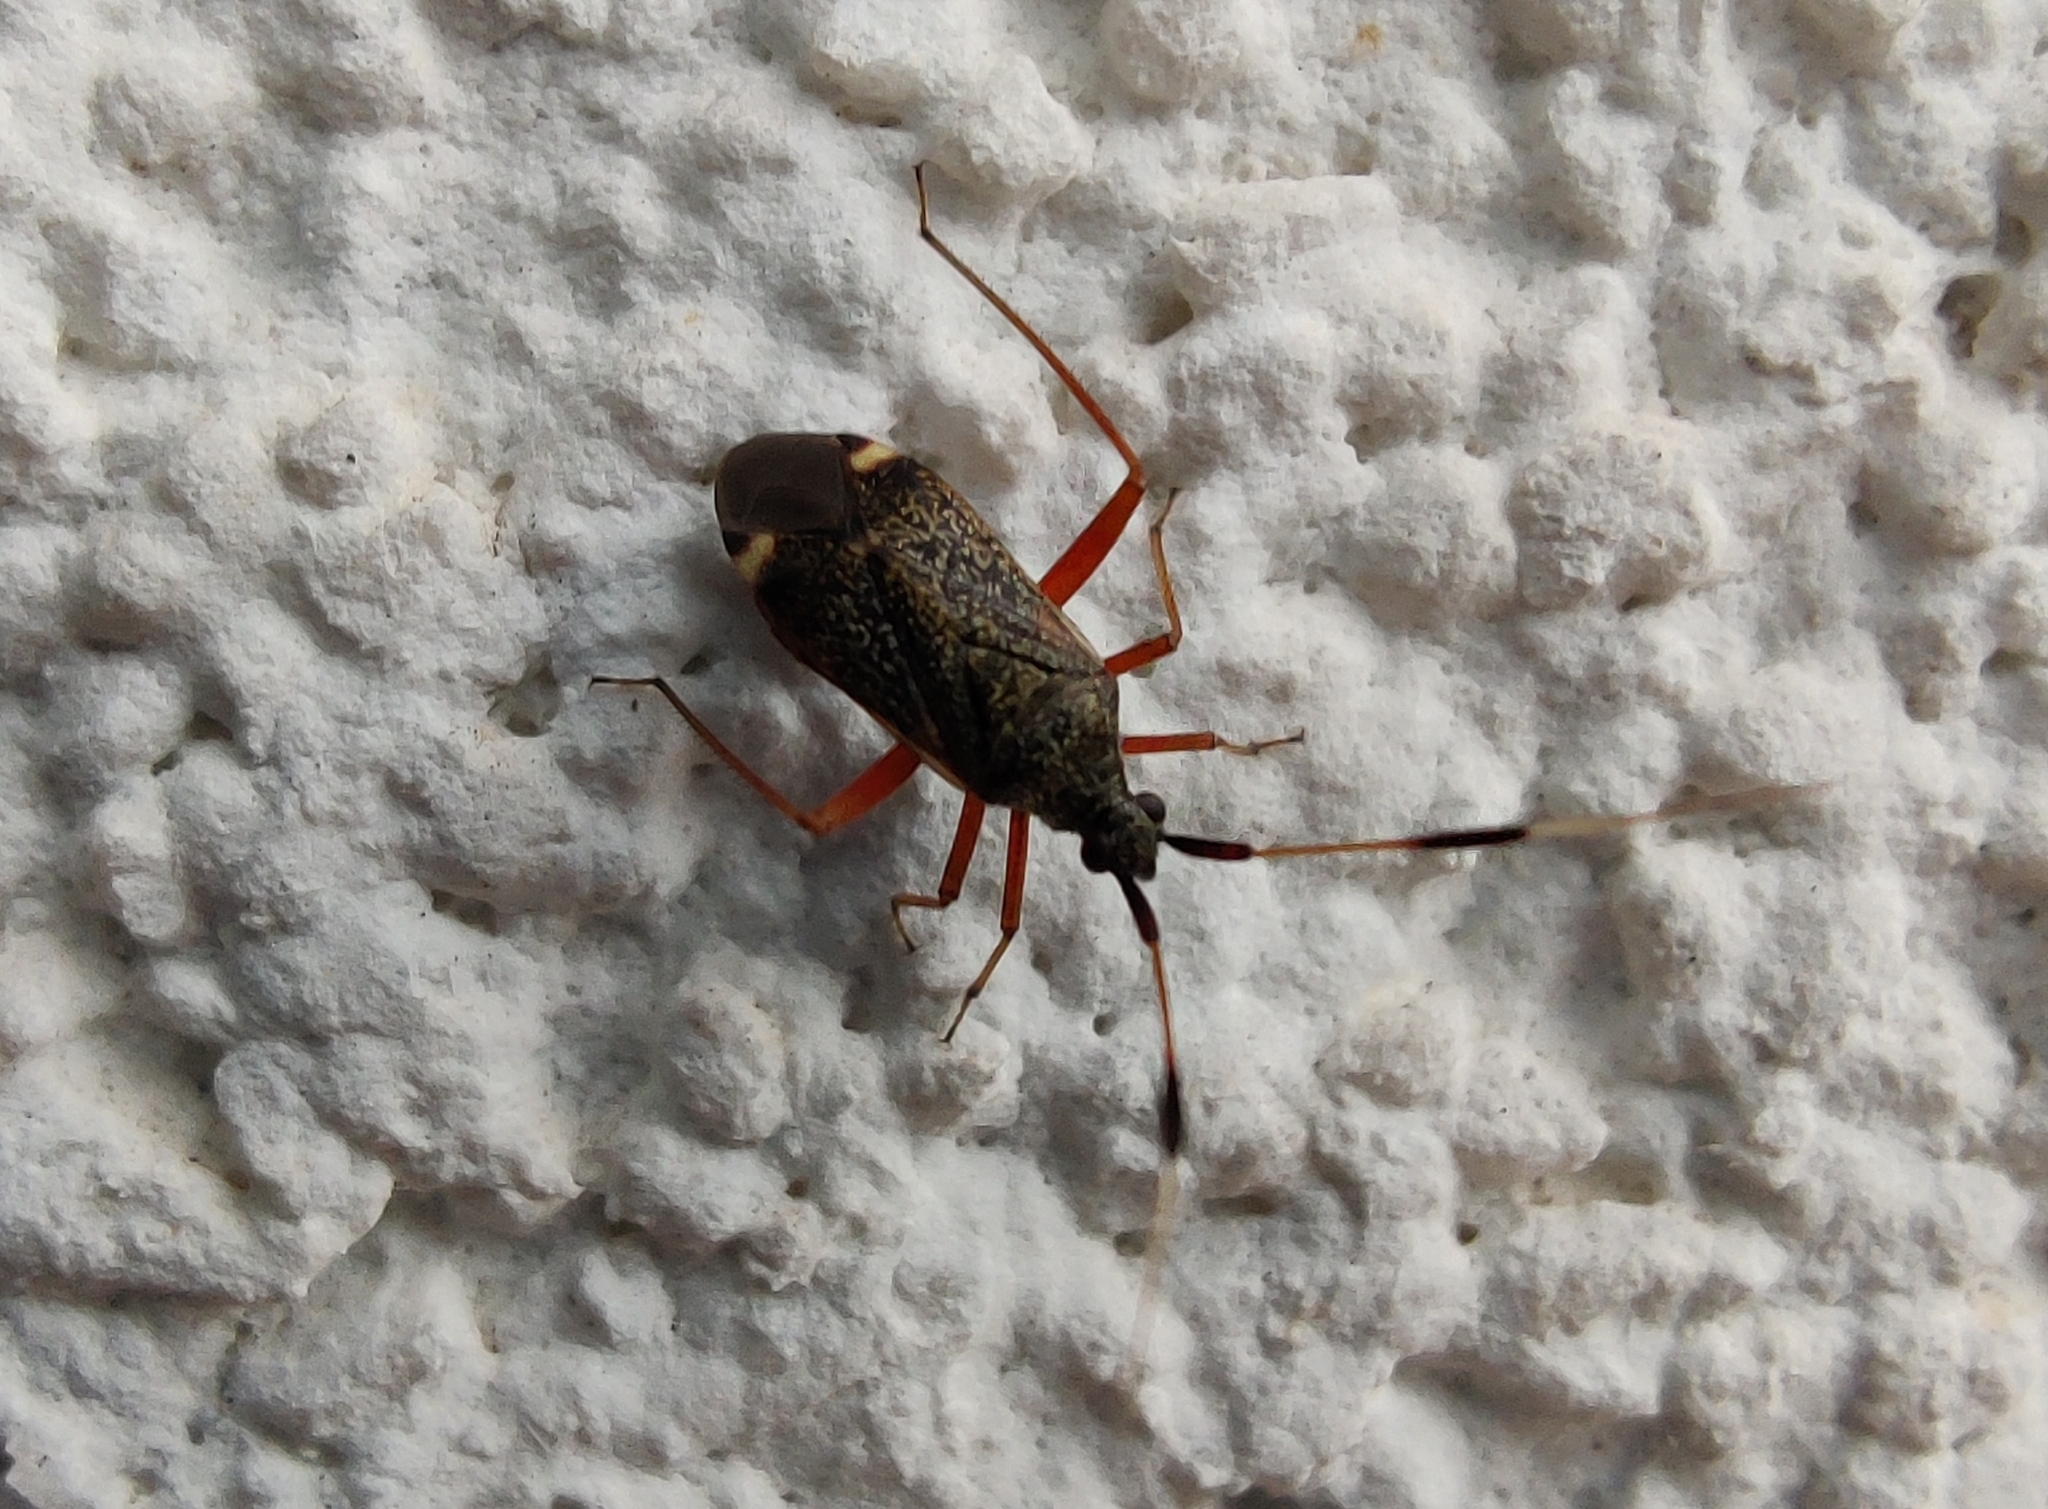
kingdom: Animalia
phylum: Arthropoda
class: Insecta
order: Hemiptera
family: Miridae
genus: Closterotomus
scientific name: Closterotomus biclavatus
